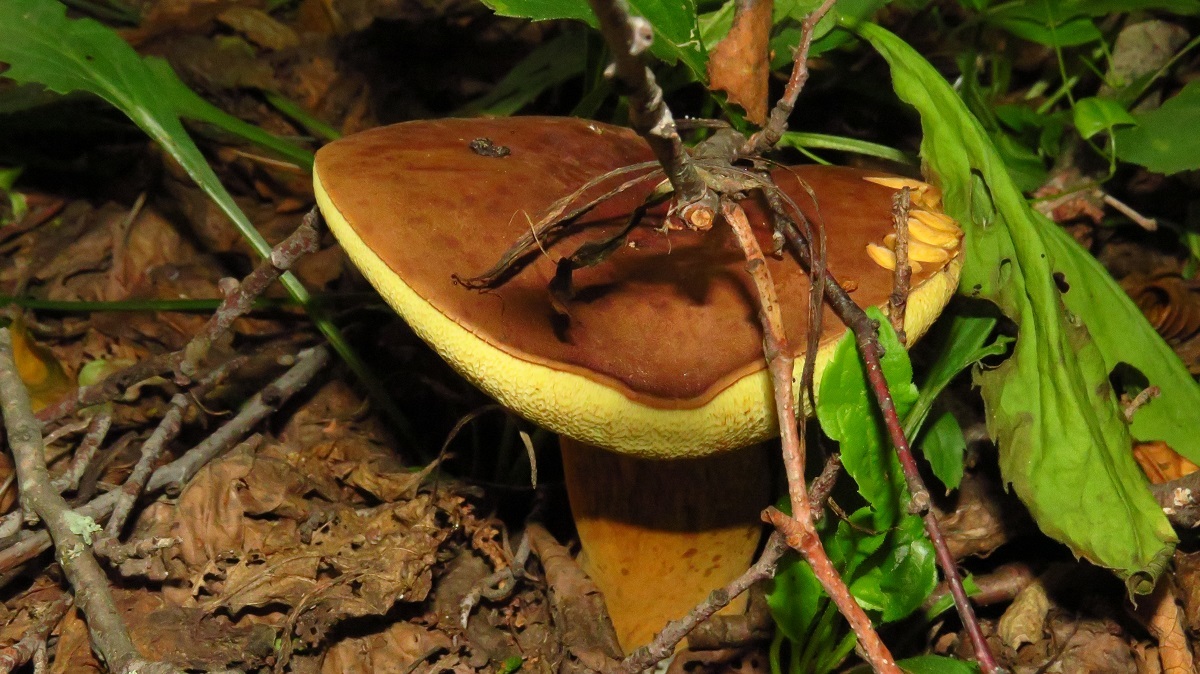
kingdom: Fungi
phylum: Basidiomycota
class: Agaricomycetes
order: Boletales
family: Boletaceae
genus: Imleria
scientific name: Imleria badia
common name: Bay bolete
